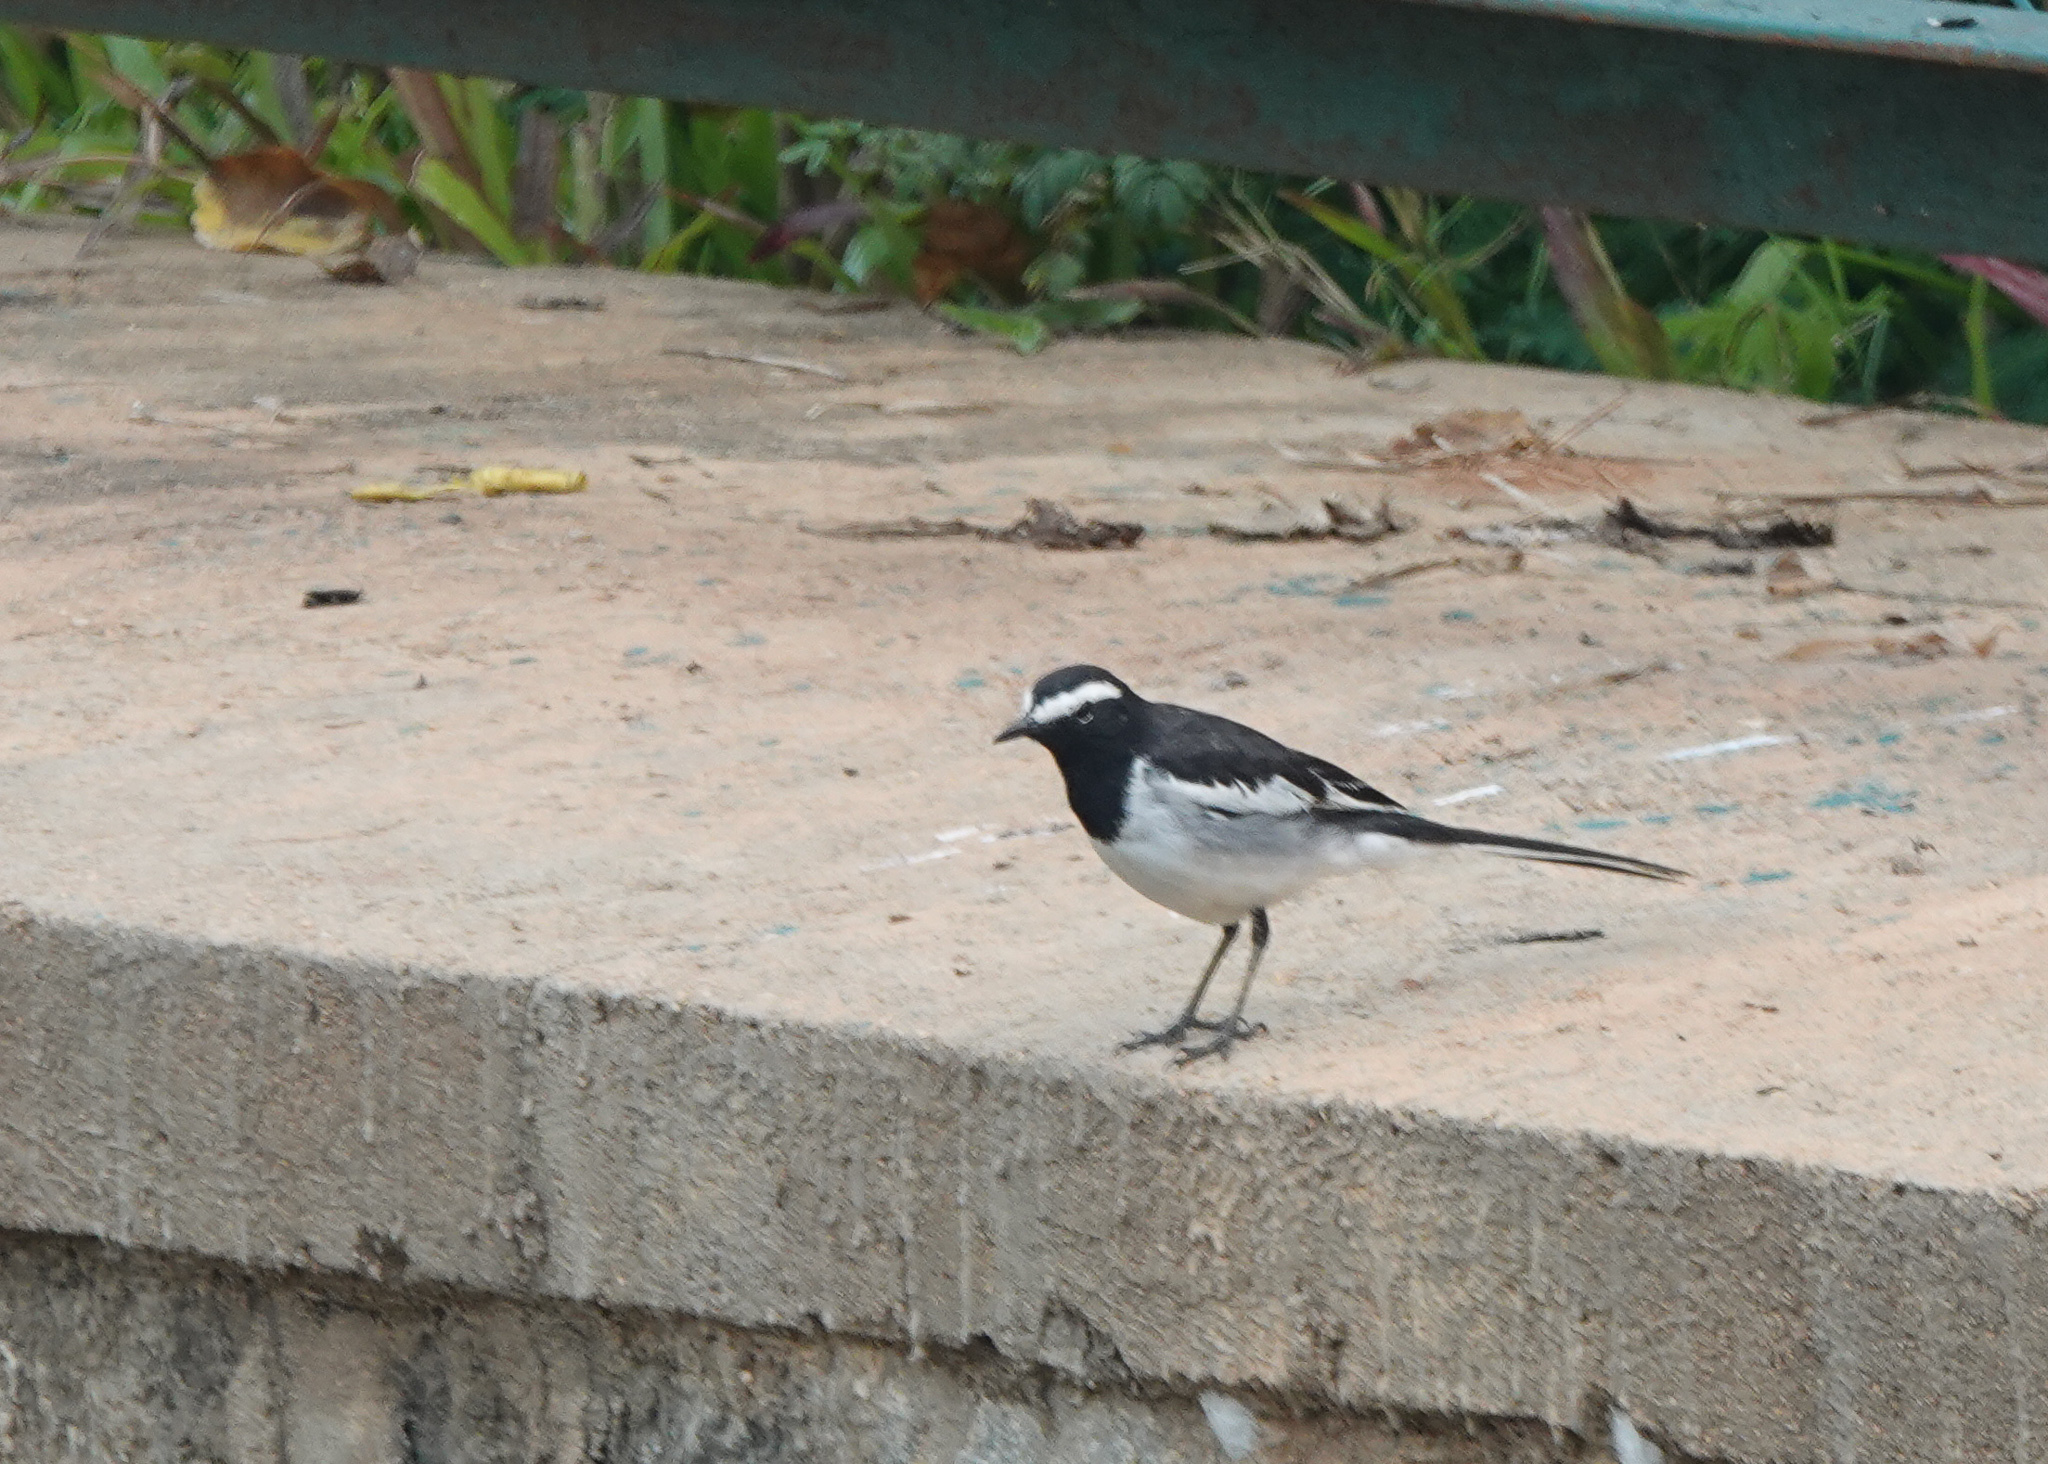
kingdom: Animalia
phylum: Chordata
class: Aves
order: Passeriformes
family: Motacillidae
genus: Motacilla
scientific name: Motacilla maderaspatensis
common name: White-browed wagtail
